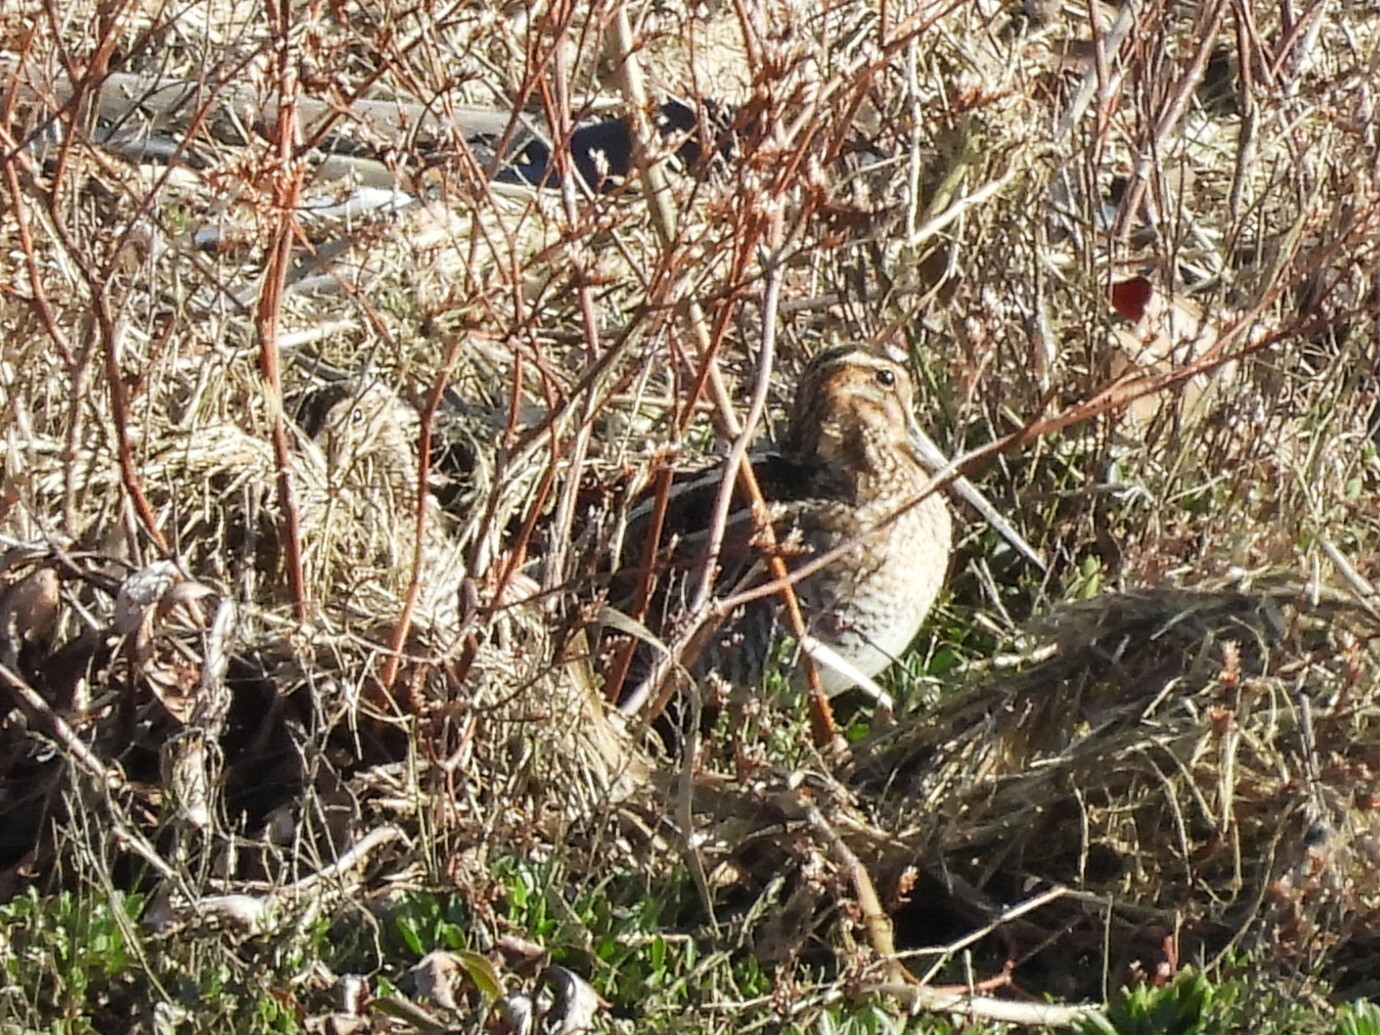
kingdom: Animalia
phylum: Chordata
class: Aves
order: Charadriiformes
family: Scolopacidae
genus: Gallinago
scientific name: Gallinago delicata
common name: Wilson's snipe
